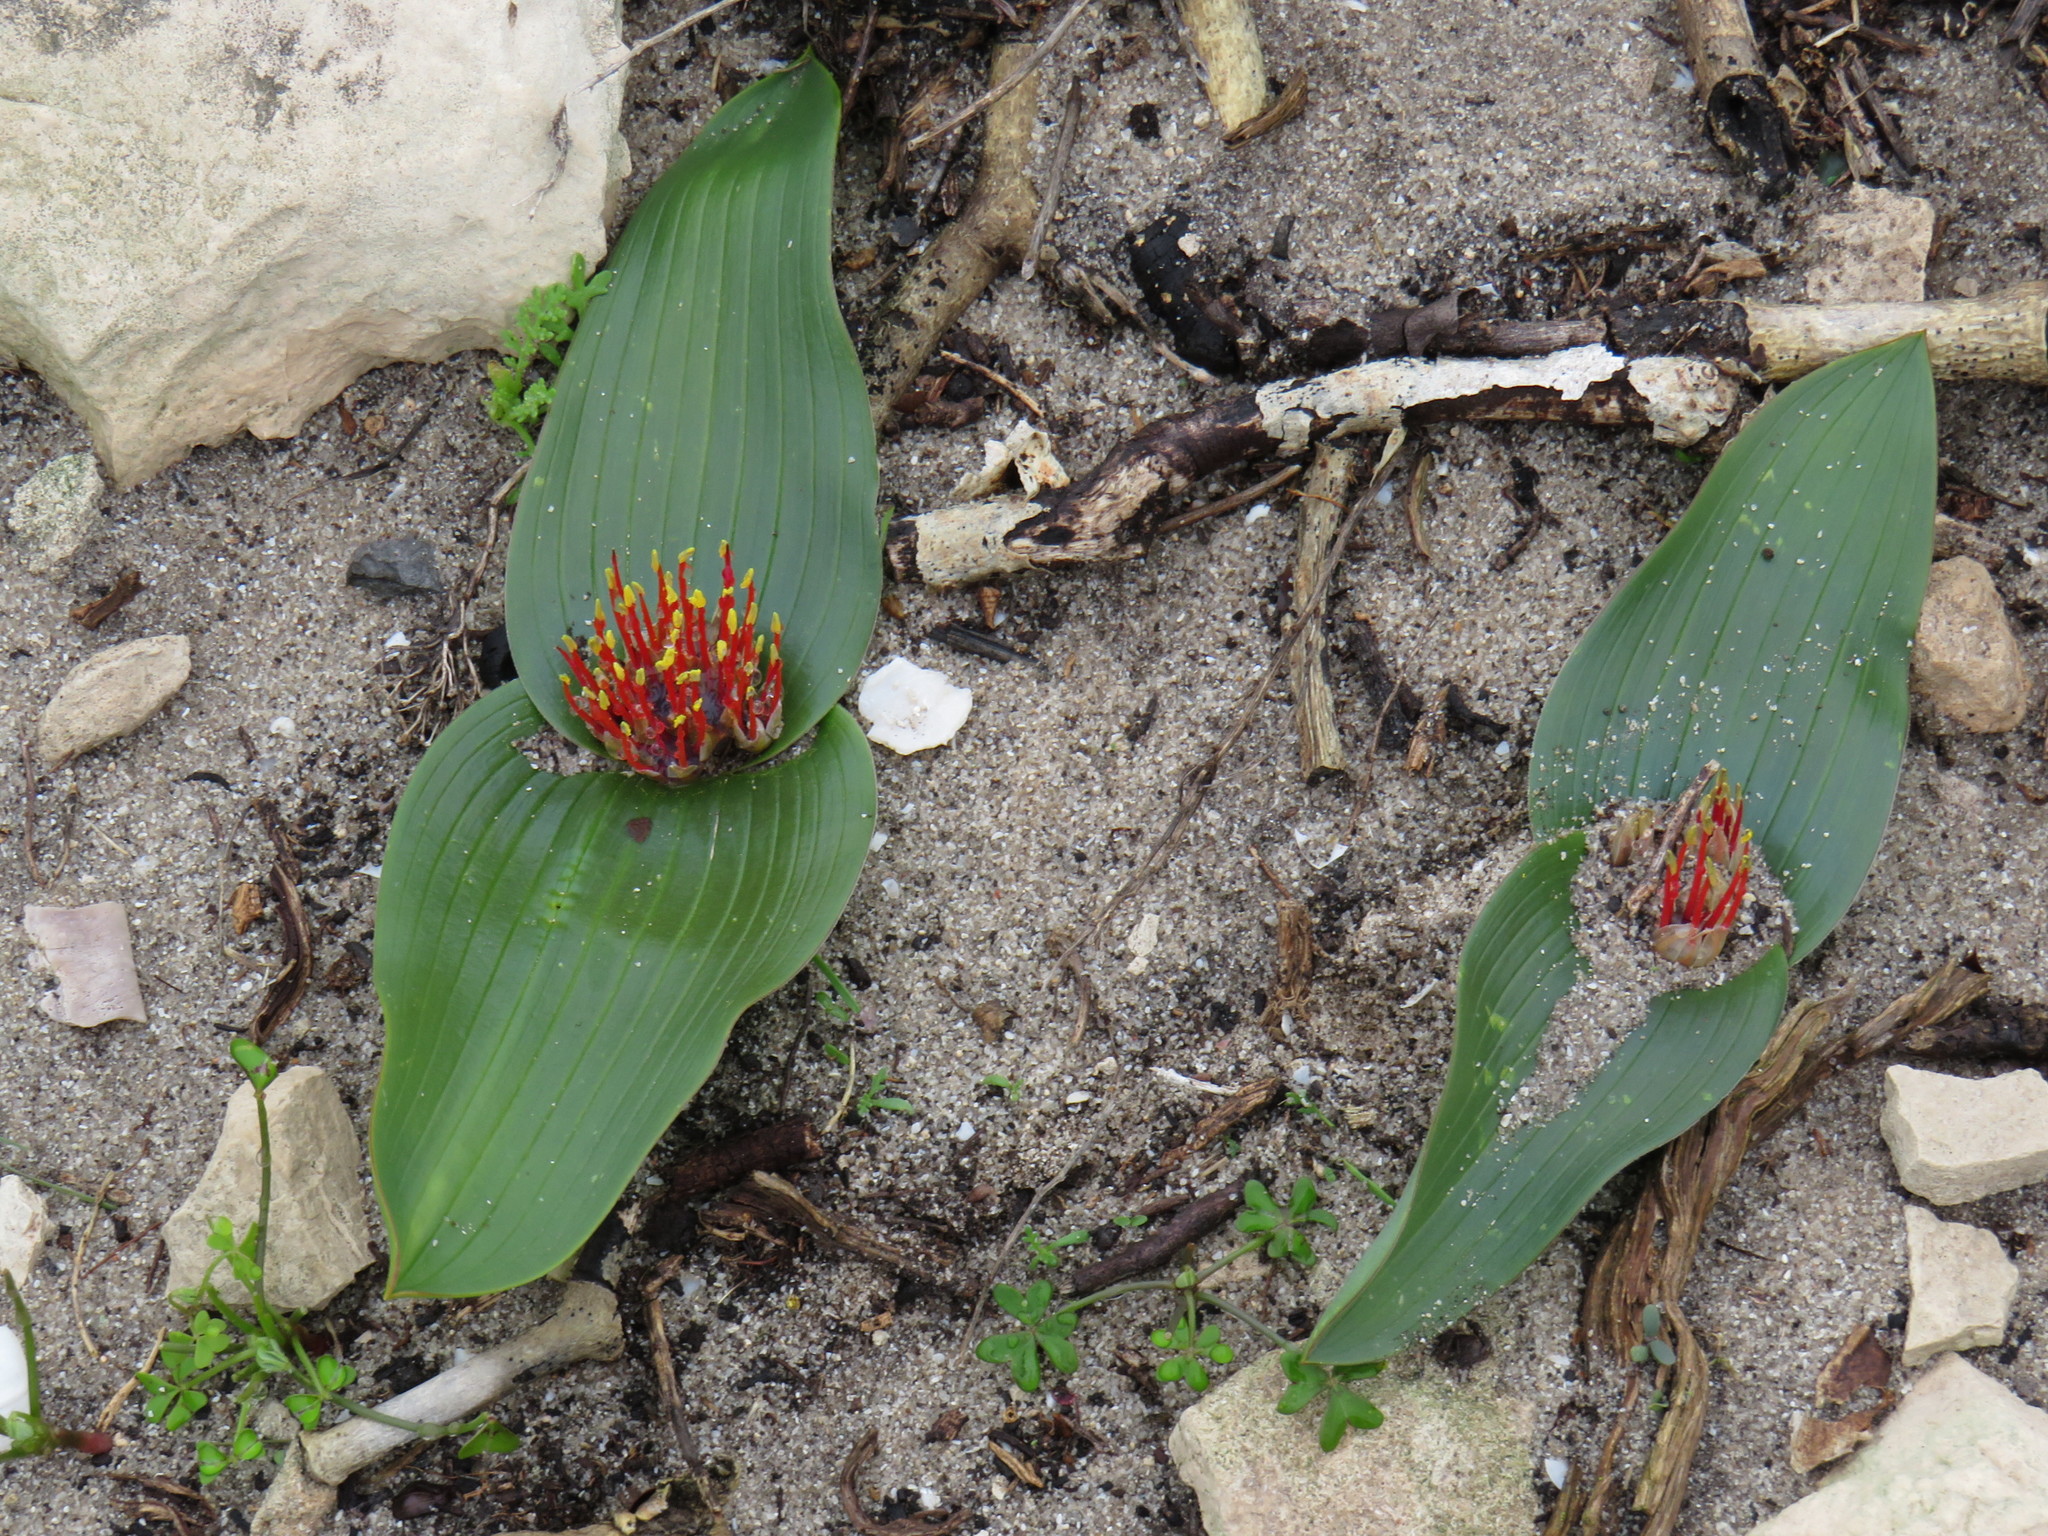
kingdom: Plantae
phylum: Tracheophyta
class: Liliopsida
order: Asparagales
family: Asparagaceae
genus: Daubenya
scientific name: Daubenya zeyheri
